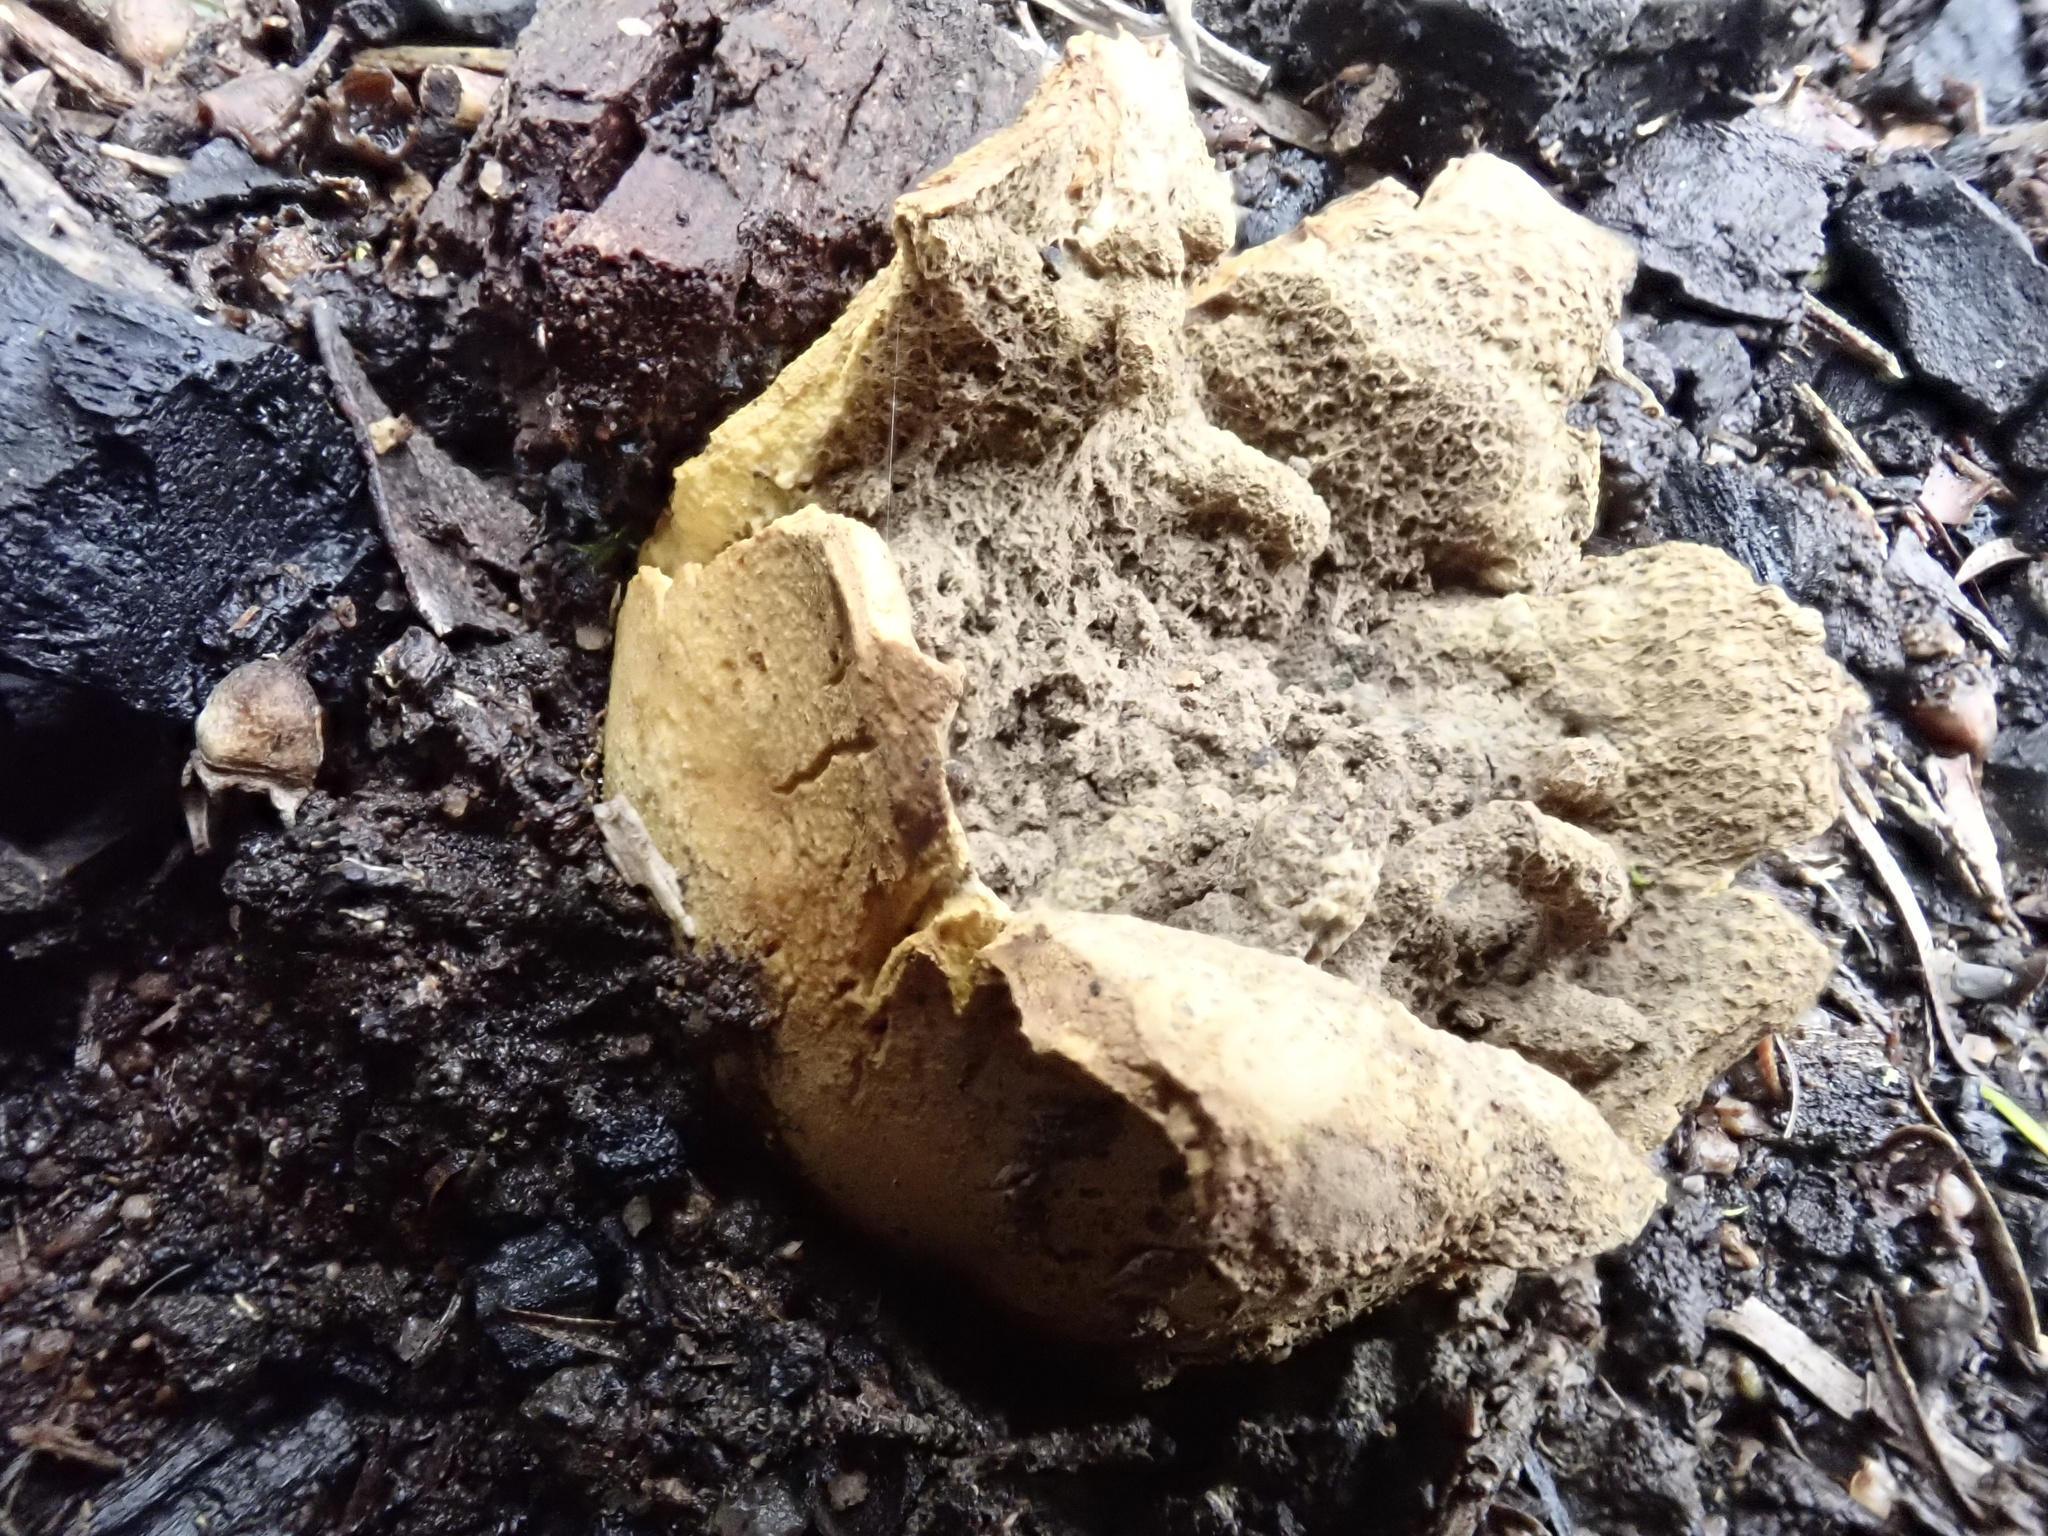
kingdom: Fungi
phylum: Basidiomycota
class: Agaricomycetes
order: Boletales
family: Sclerodermataceae
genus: Scleroderma
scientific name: Scleroderma cepa
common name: Onion earthball
